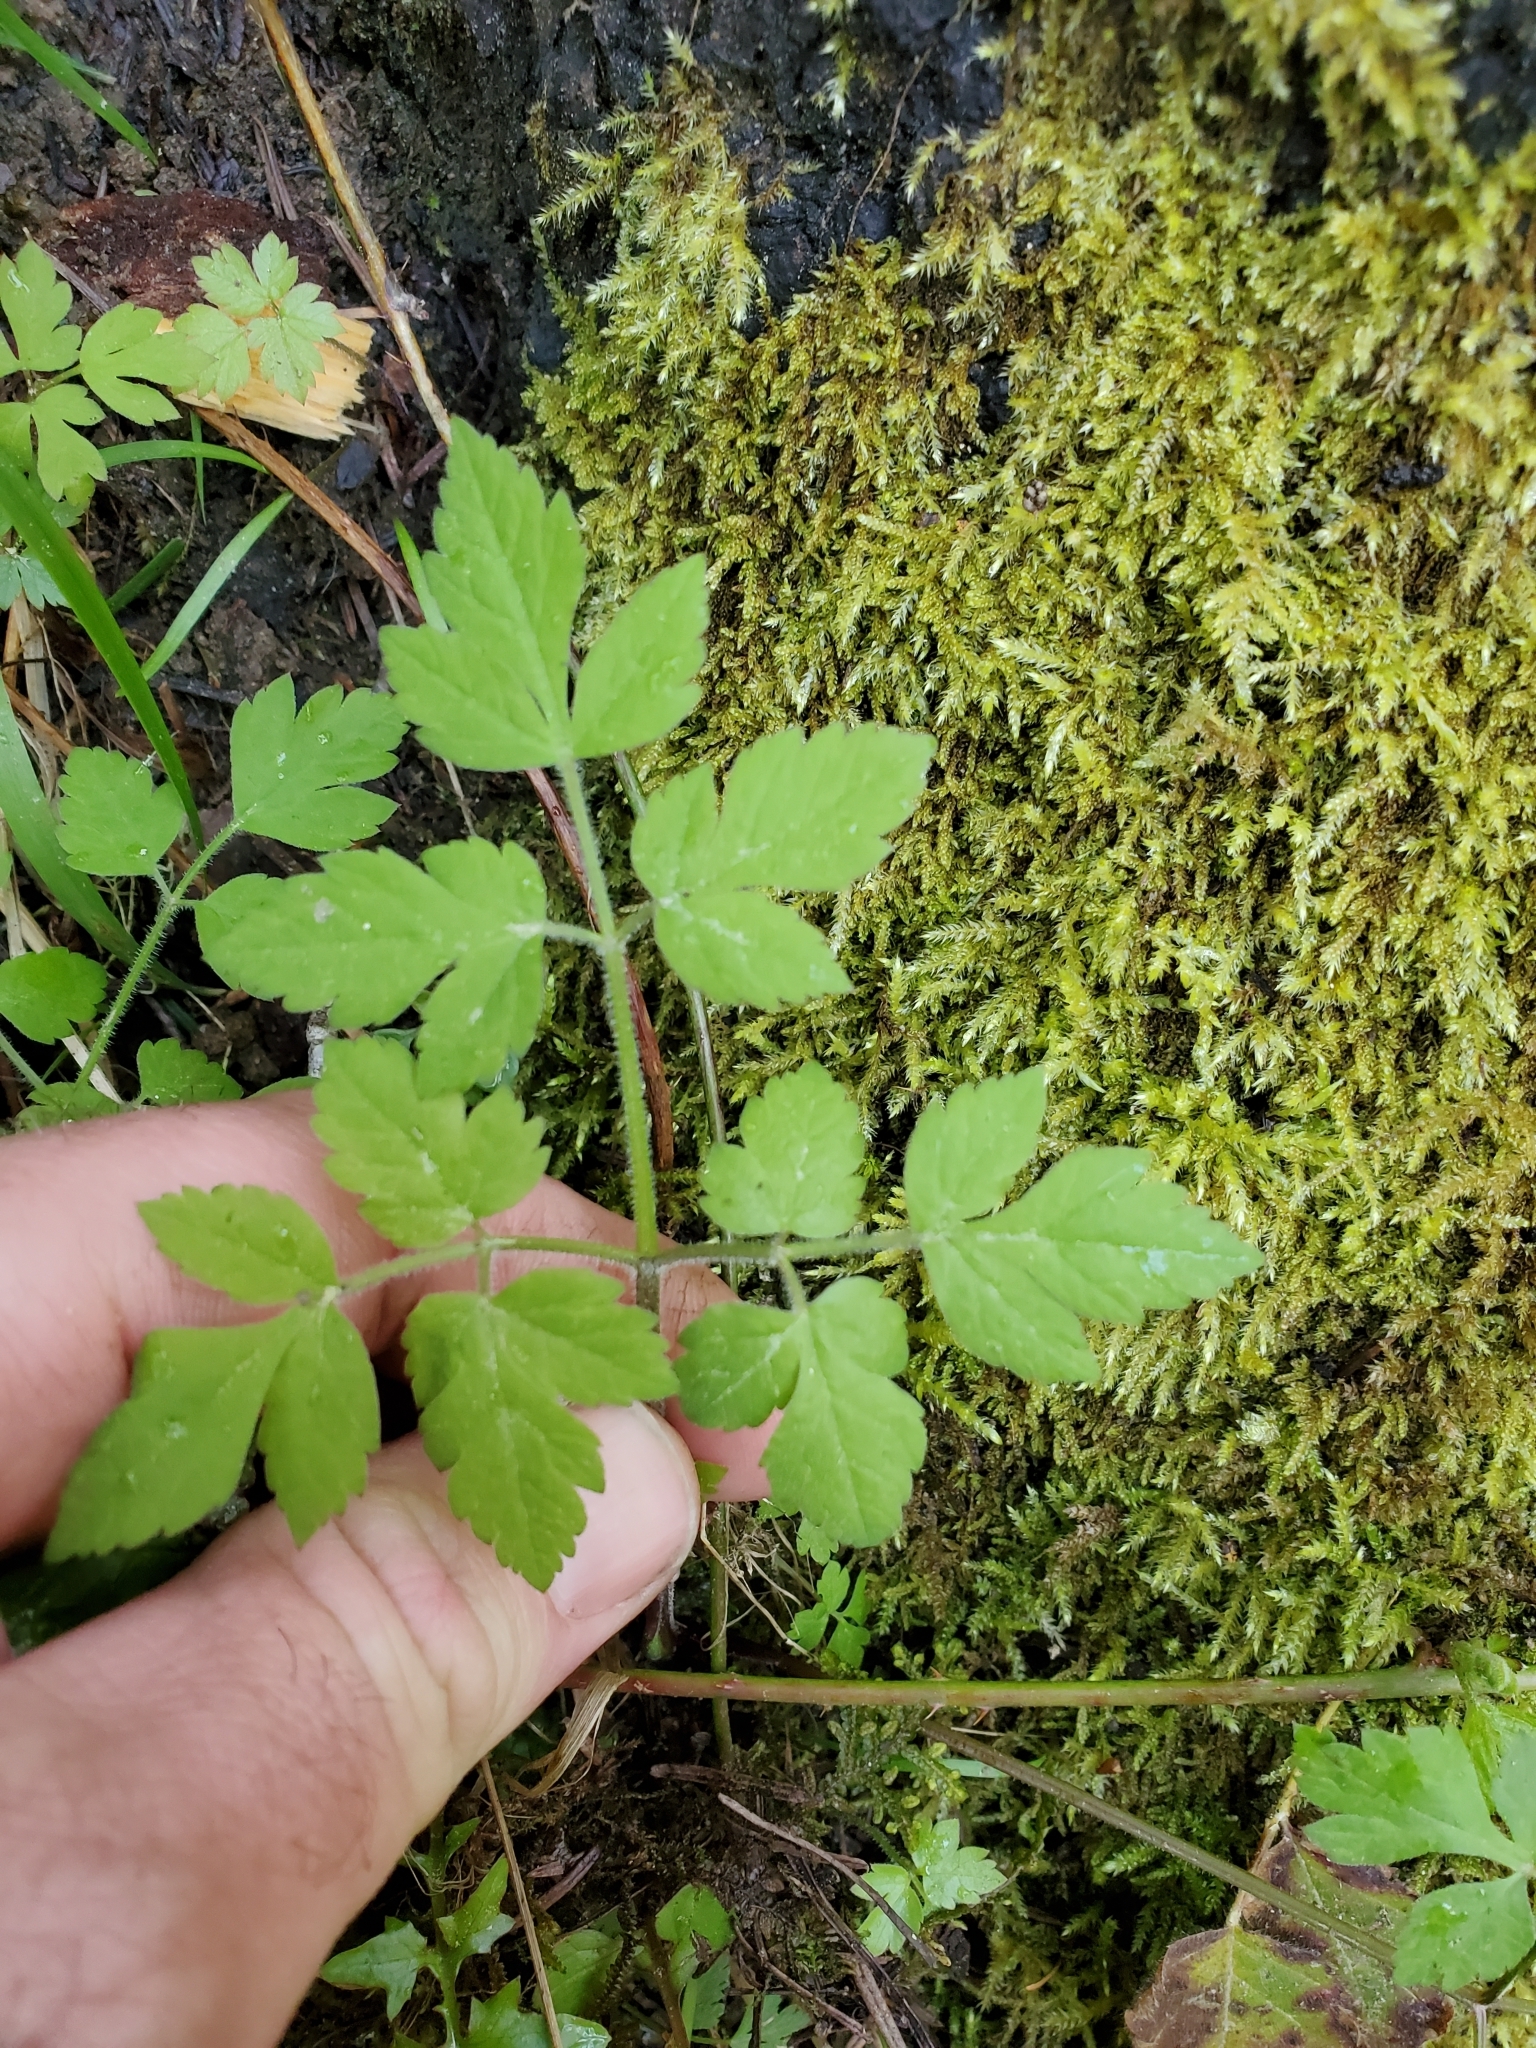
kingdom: Plantae
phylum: Tracheophyta
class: Magnoliopsida
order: Apiales
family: Apiaceae
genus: Osmorhiza
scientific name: Osmorhiza berteroi
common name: Mountain sweet cicely
